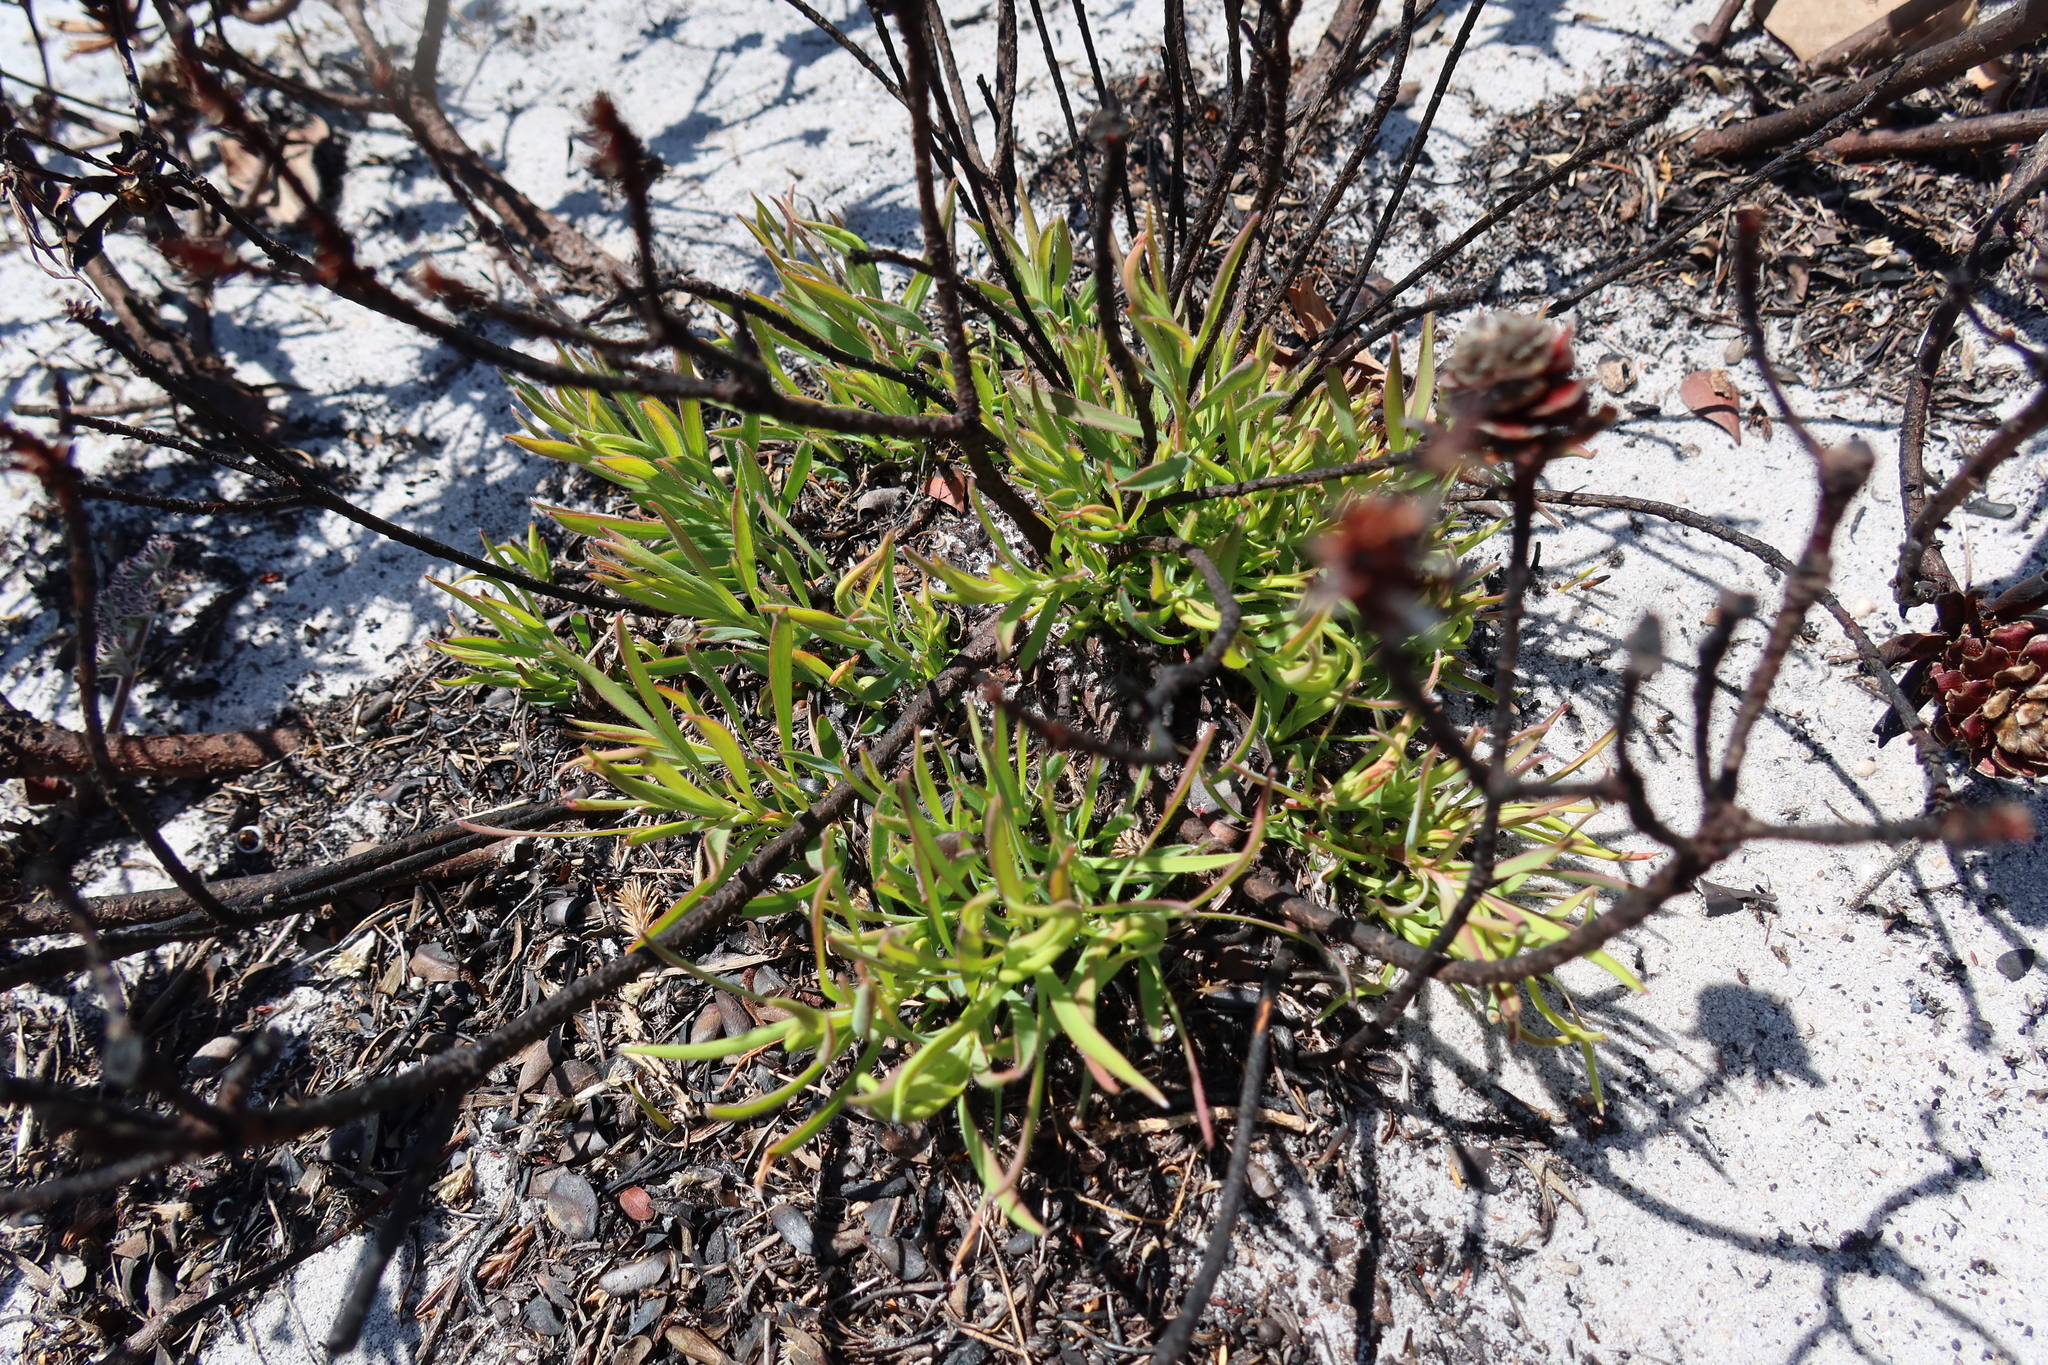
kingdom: Plantae
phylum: Tracheophyta
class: Magnoliopsida
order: Proteales
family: Proteaceae
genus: Leucadendron
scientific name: Leucadendron salignum
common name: Common sunshine conebush
